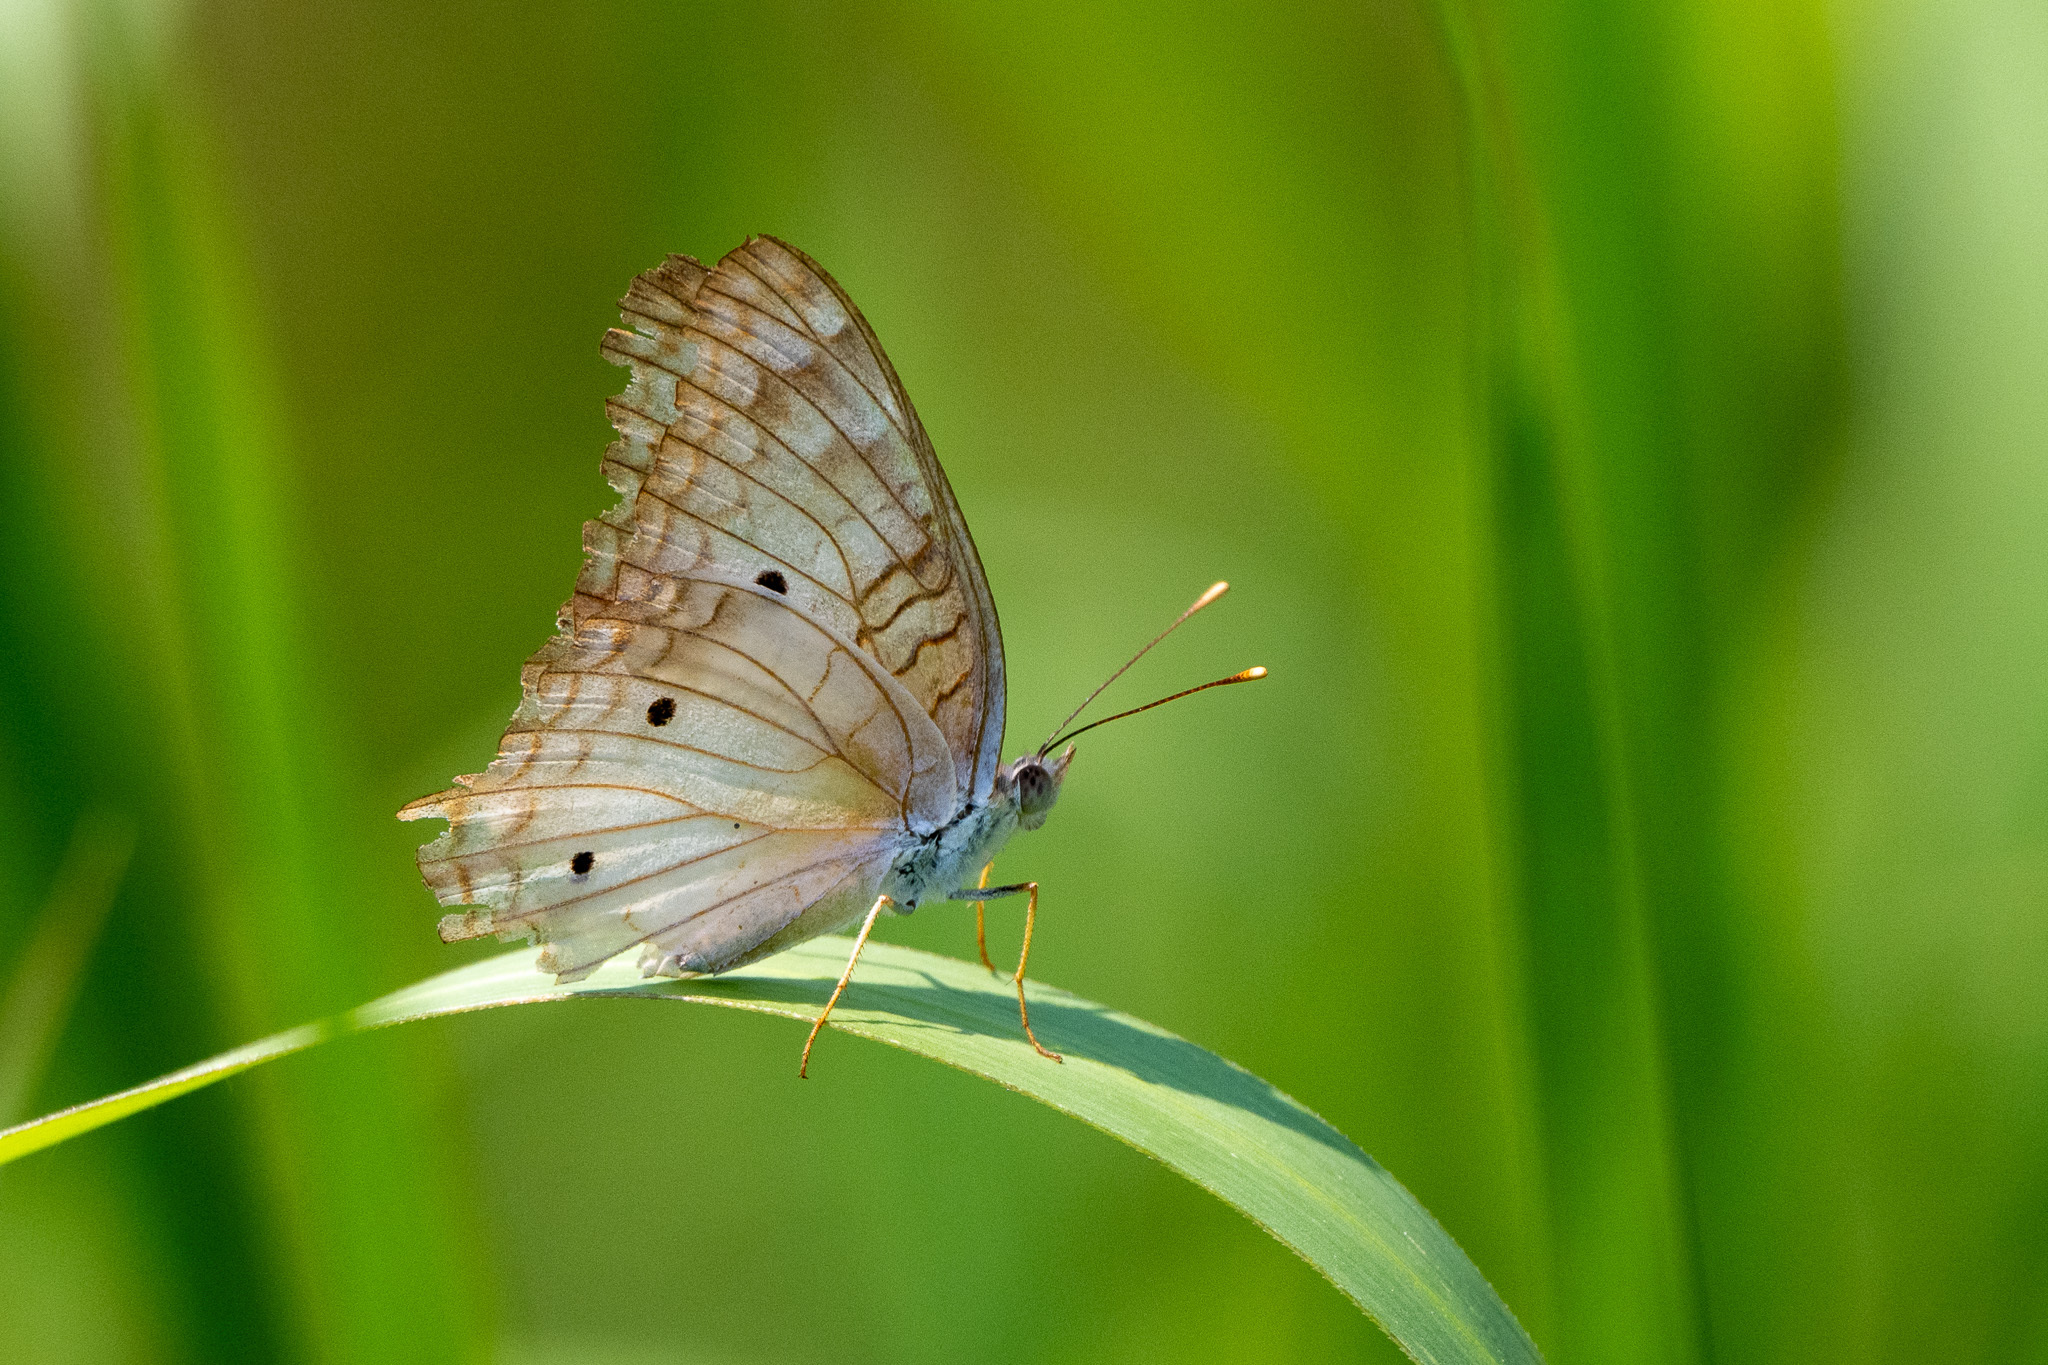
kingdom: Animalia
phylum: Arthropoda
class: Insecta
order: Lepidoptera
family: Nymphalidae
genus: Anartia
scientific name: Anartia jatrophae
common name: White peacock
